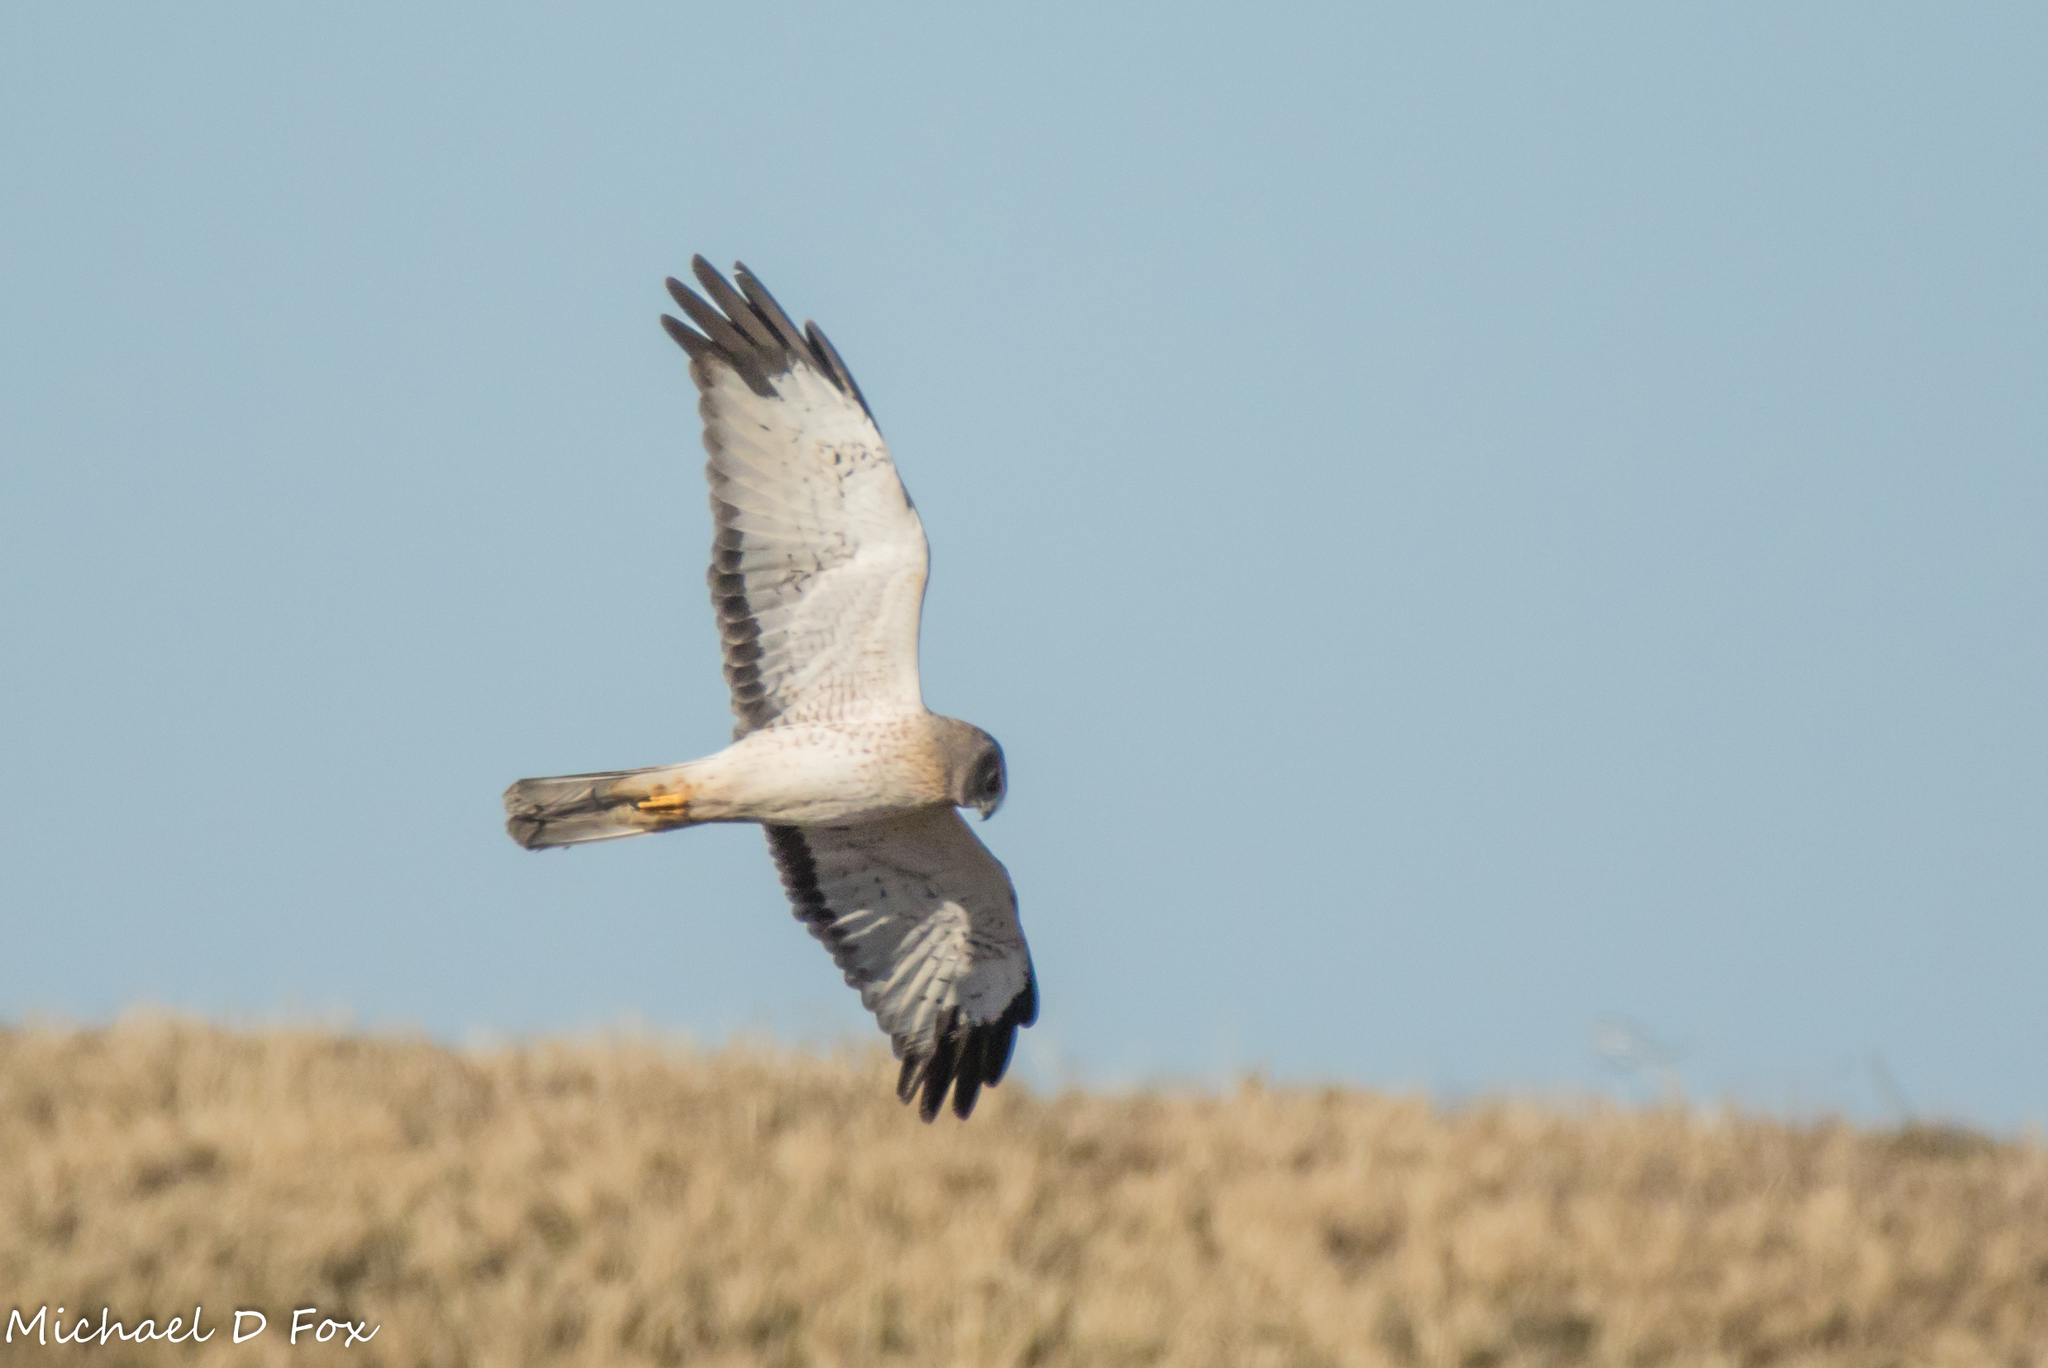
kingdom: Animalia
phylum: Chordata
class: Aves
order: Accipitriformes
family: Accipitridae
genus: Circus
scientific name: Circus cyaneus
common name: Hen harrier
